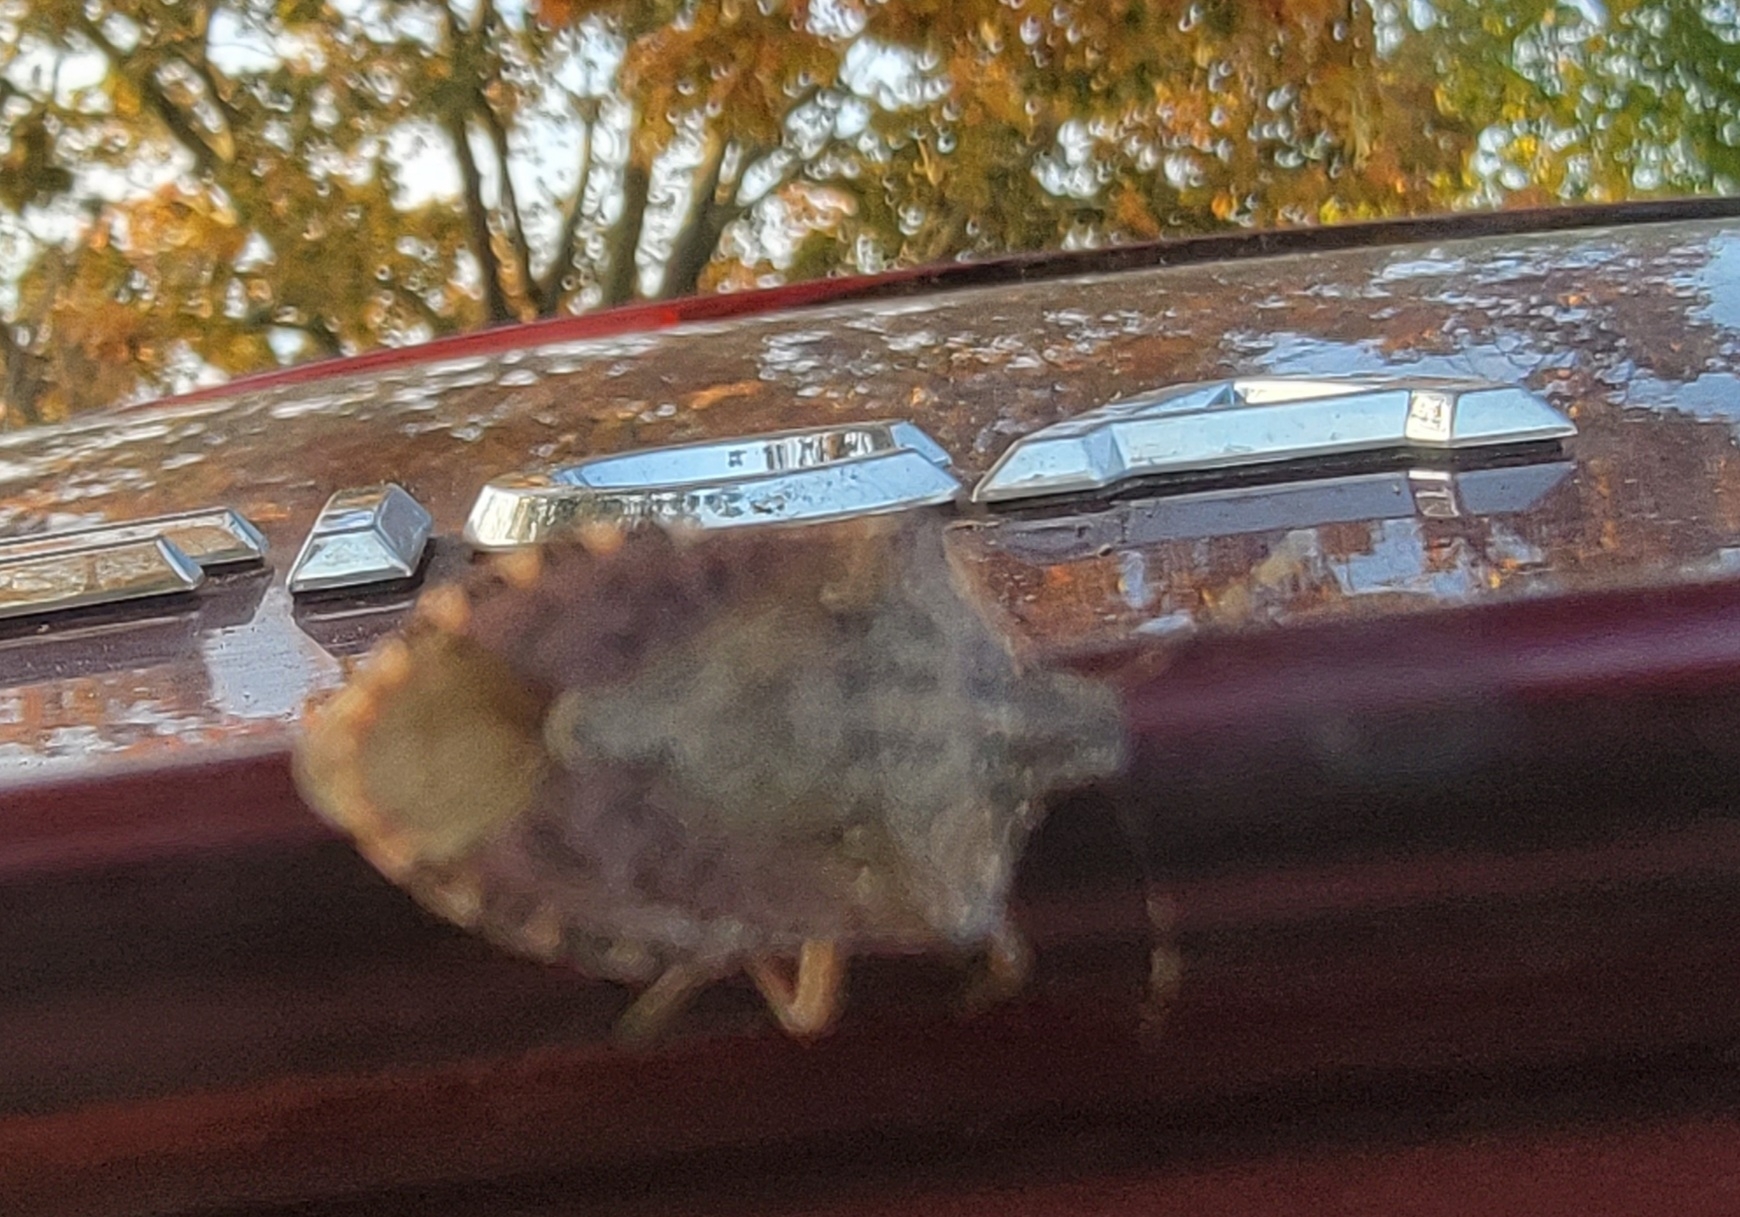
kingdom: Animalia
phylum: Arthropoda
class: Insecta
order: Hemiptera
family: Pentatomidae
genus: Halyomorpha
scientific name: Halyomorpha halys
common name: Brown marmorated stink bug
